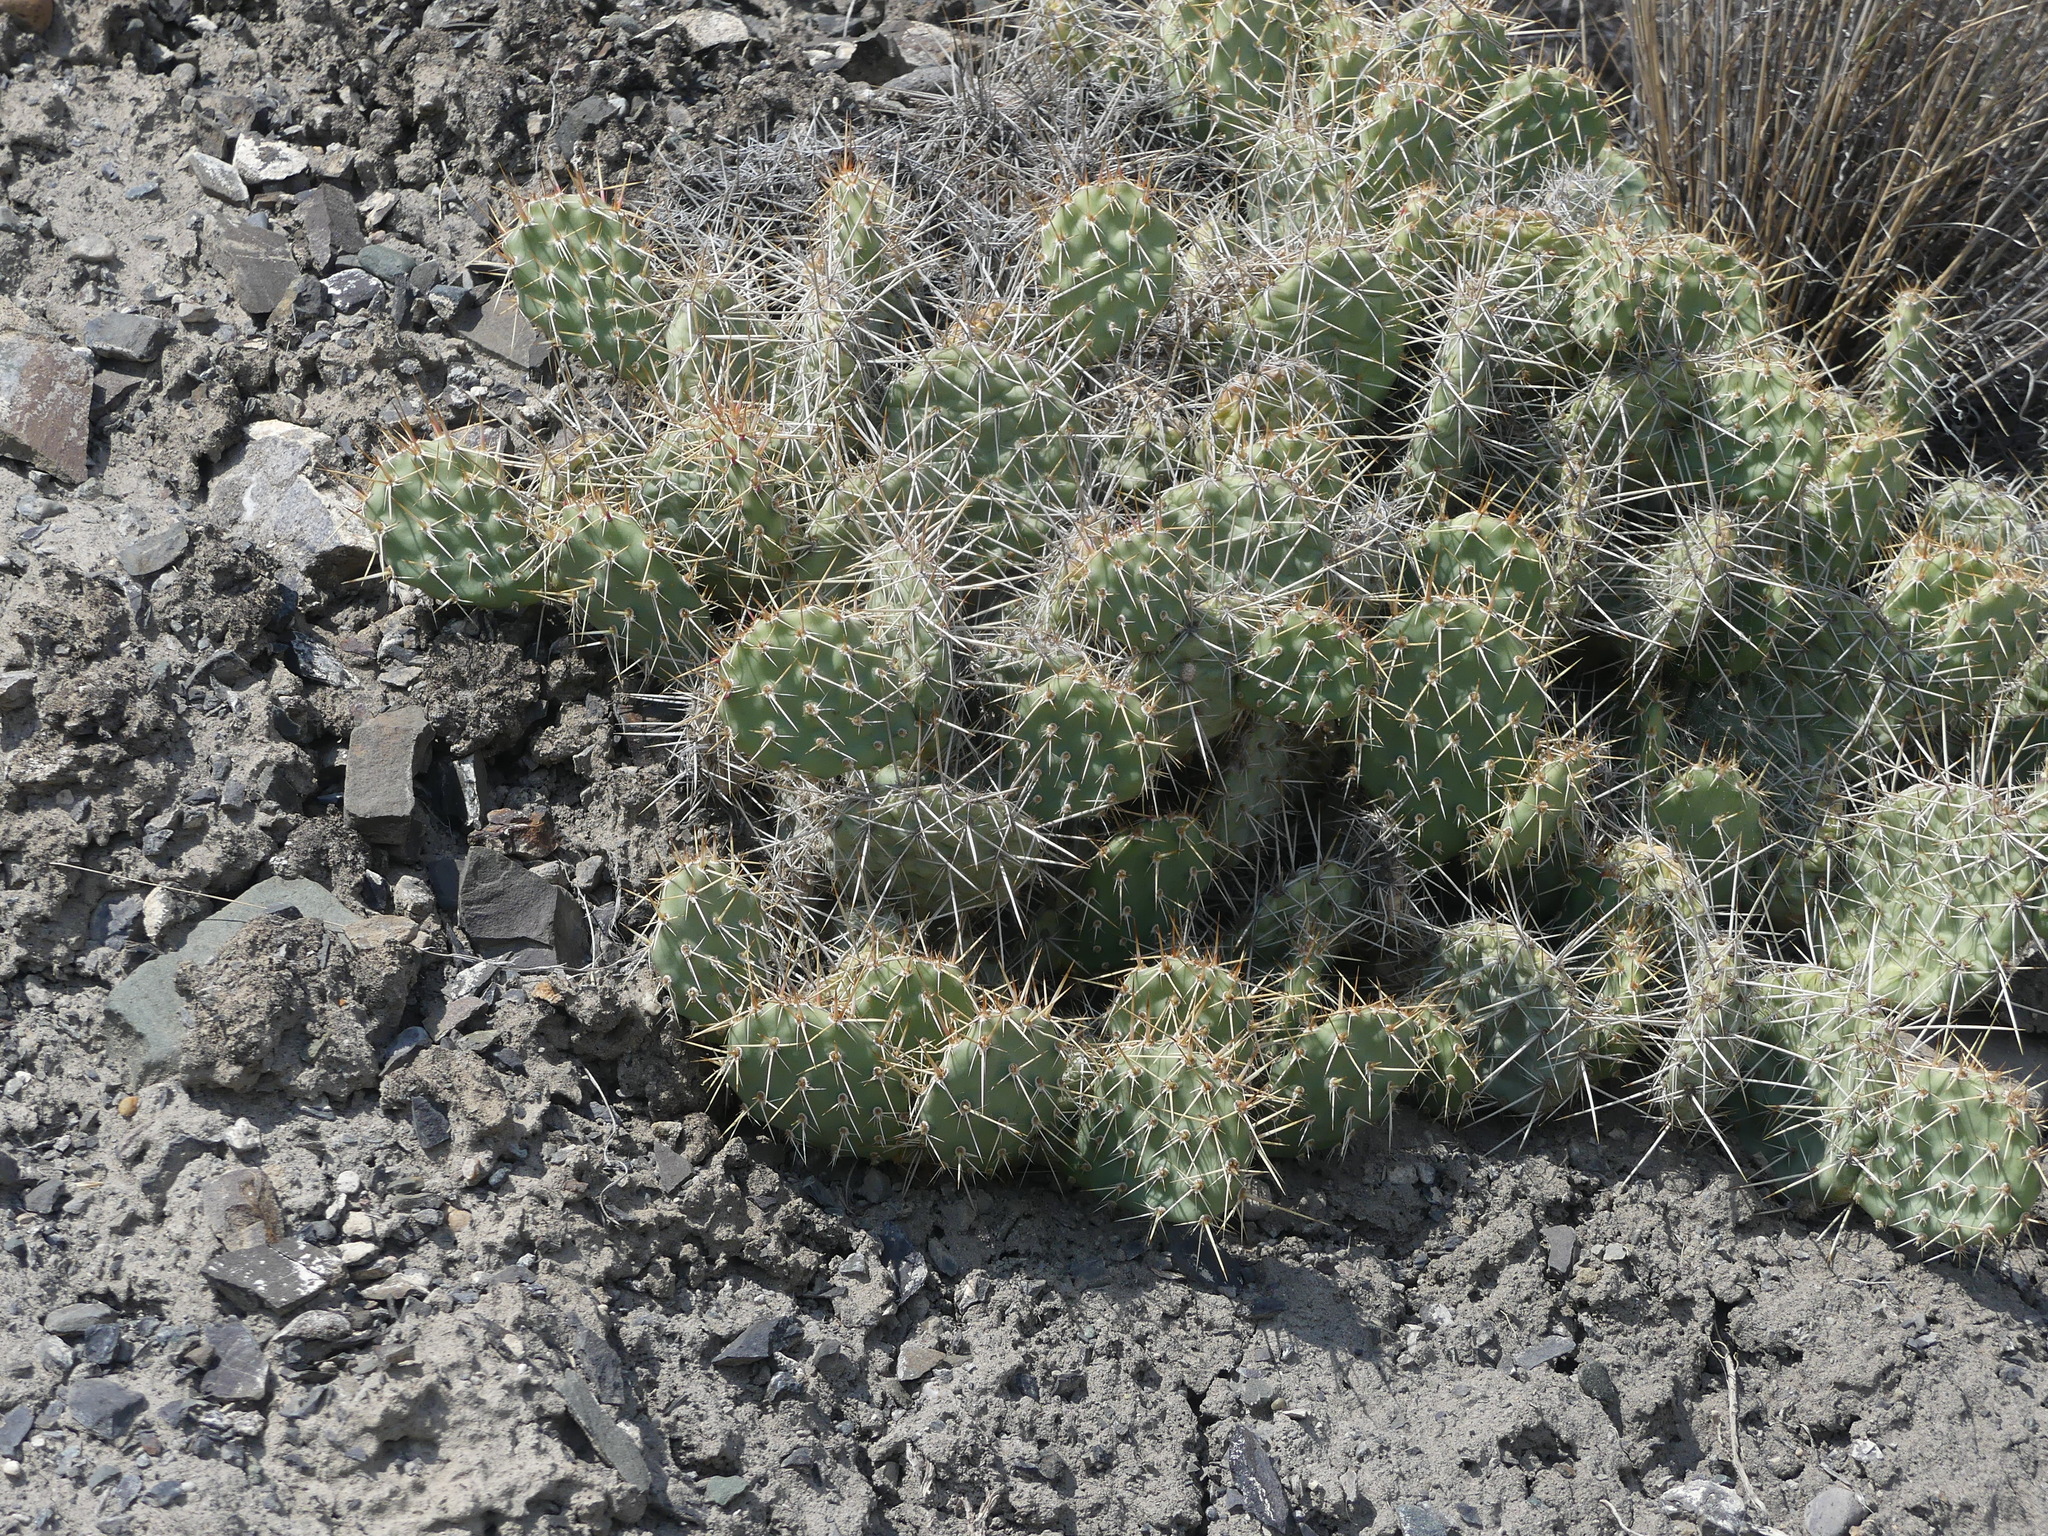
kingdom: Plantae
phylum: Tracheophyta
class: Magnoliopsida
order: Caryophyllales
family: Cactaceae
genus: Opuntia
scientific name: Opuntia columbiana
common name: Columbia prickly-pear
